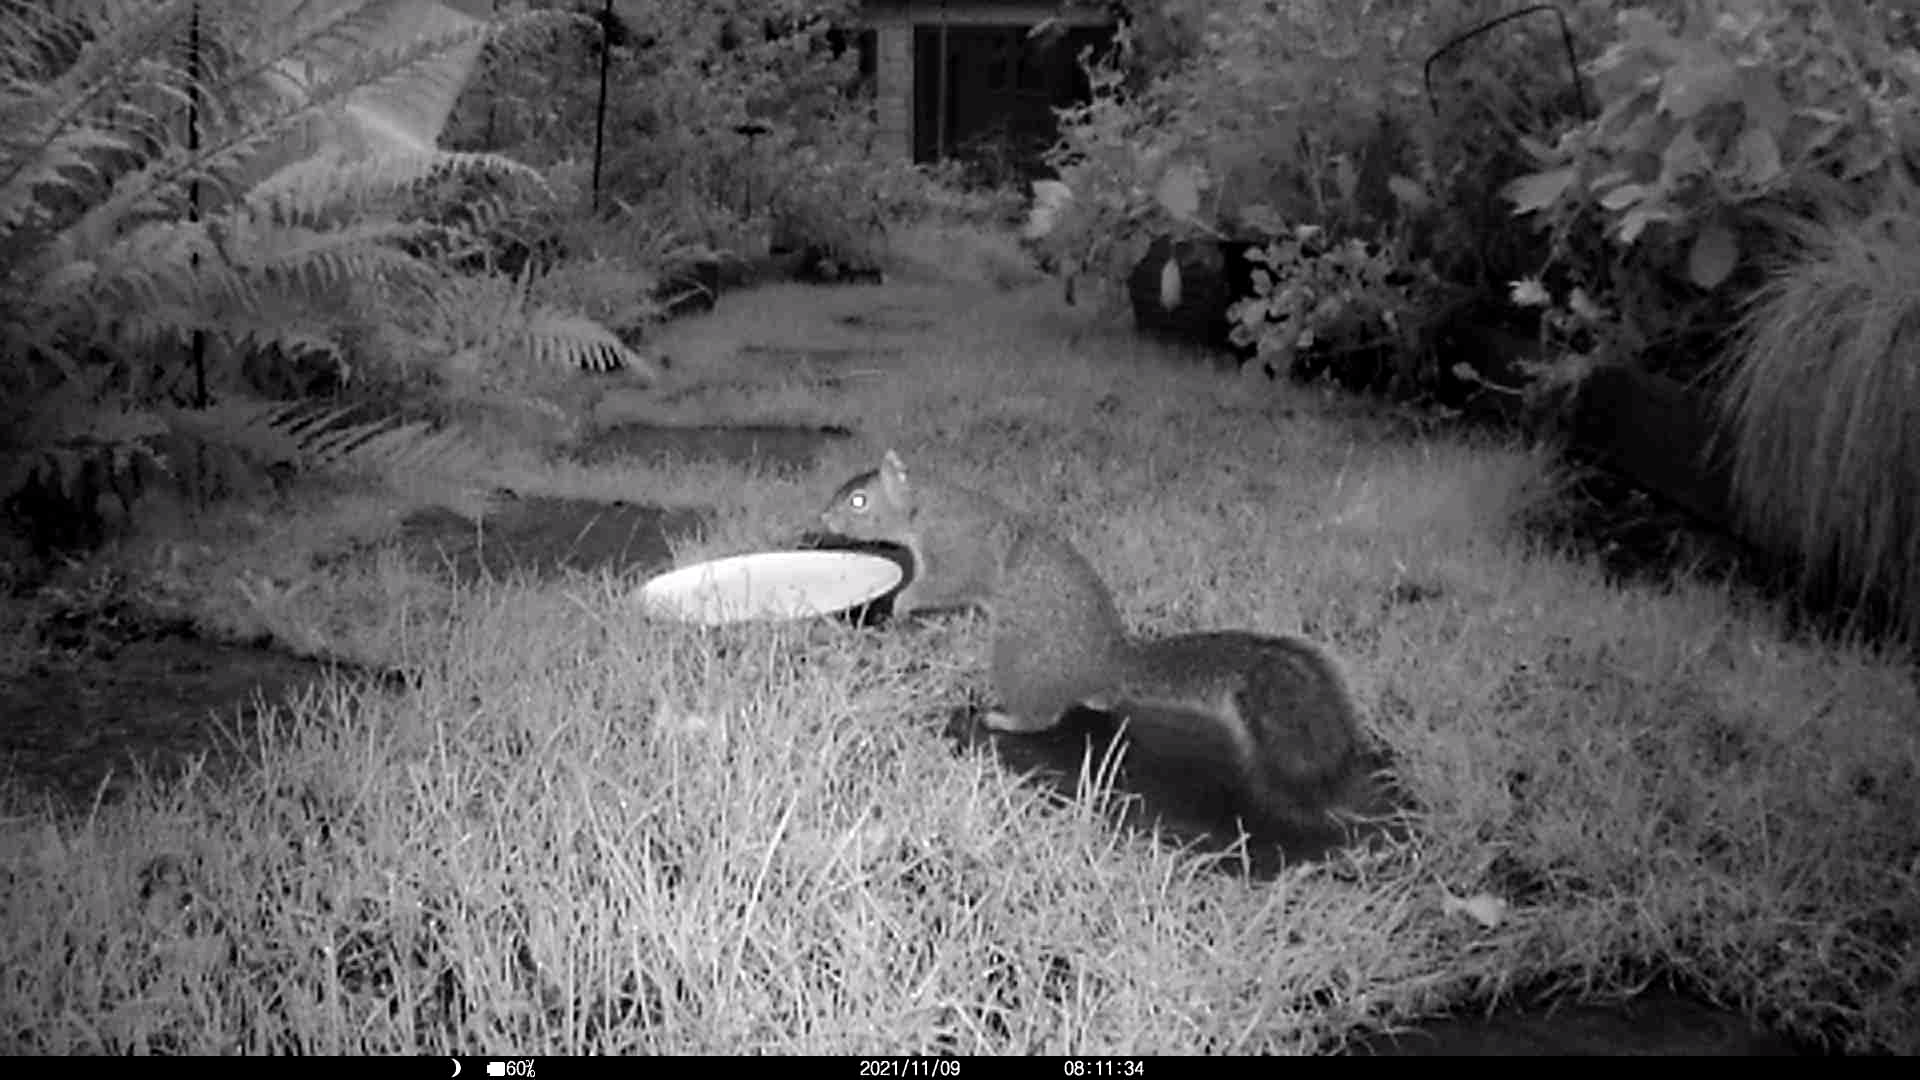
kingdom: Animalia
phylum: Chordata
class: Mammalia
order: Rodentia
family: Sciuridae
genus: Sciurus
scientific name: Sciurus carolinensis
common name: Eastern gray squirrel
